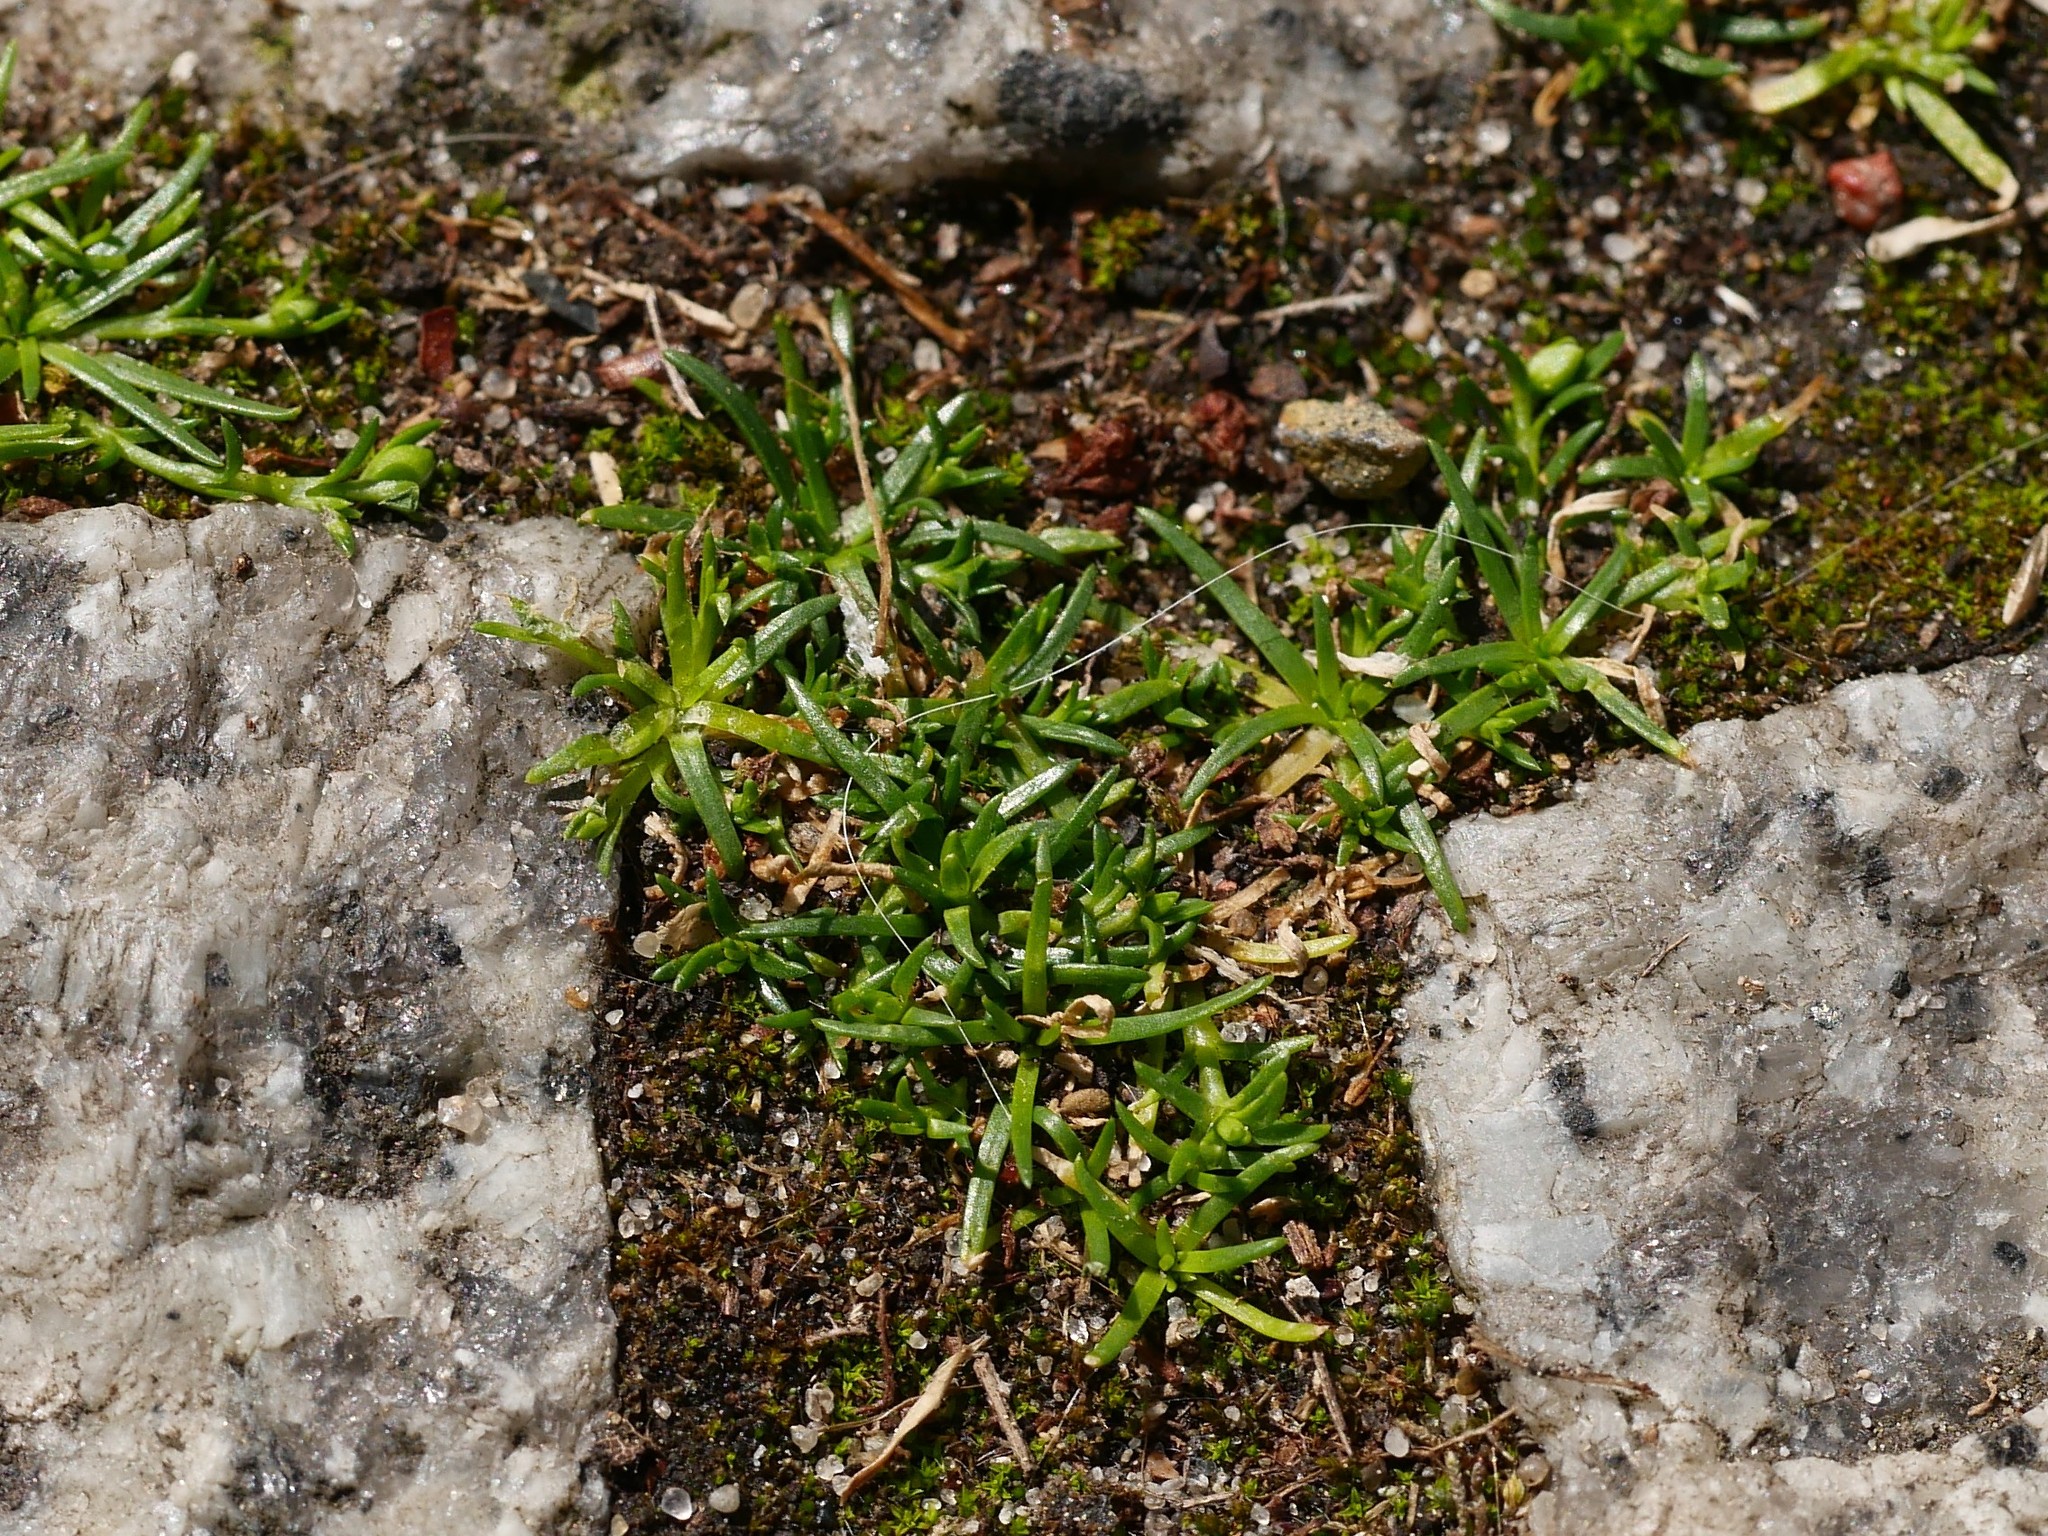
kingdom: Plantae
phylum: Tracheophyta
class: Magnoliopsida
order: Caryophyllales
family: Caryophyllaceae
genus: Sagina
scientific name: Sagina procumbens
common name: Procumbent pearlwort
